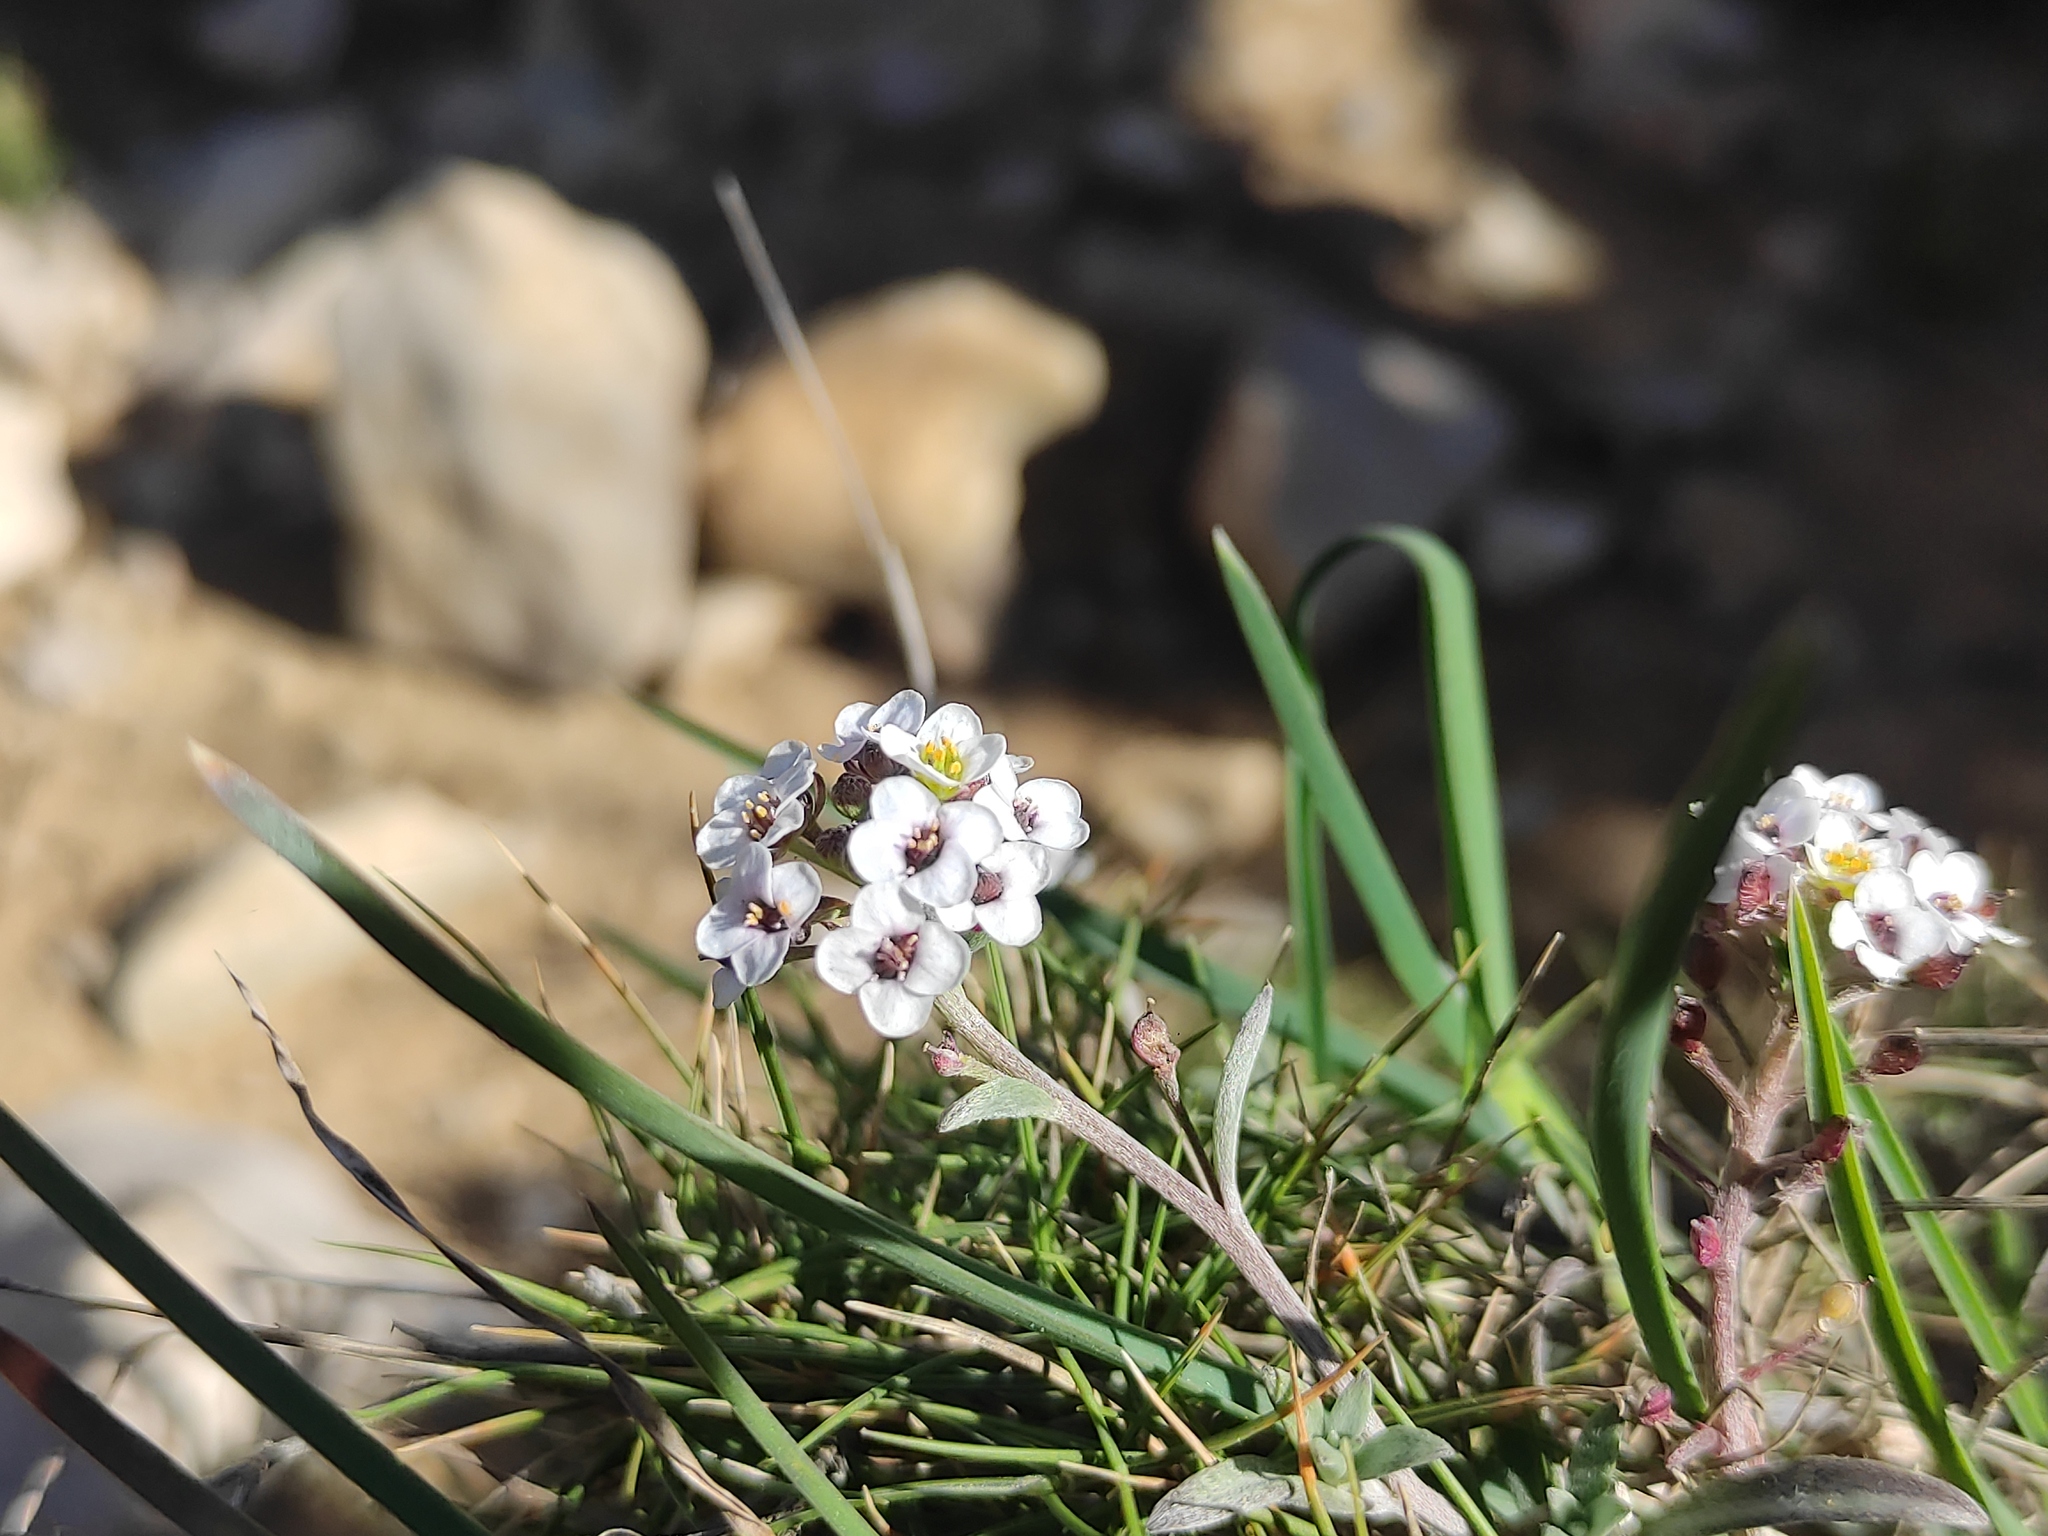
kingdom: Plantae
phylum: Tracheophyta
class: Magnoliopsida
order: Brassicales
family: Brassicaceae
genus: Lobularia
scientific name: Lobularia maritima
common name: Sweet alison
